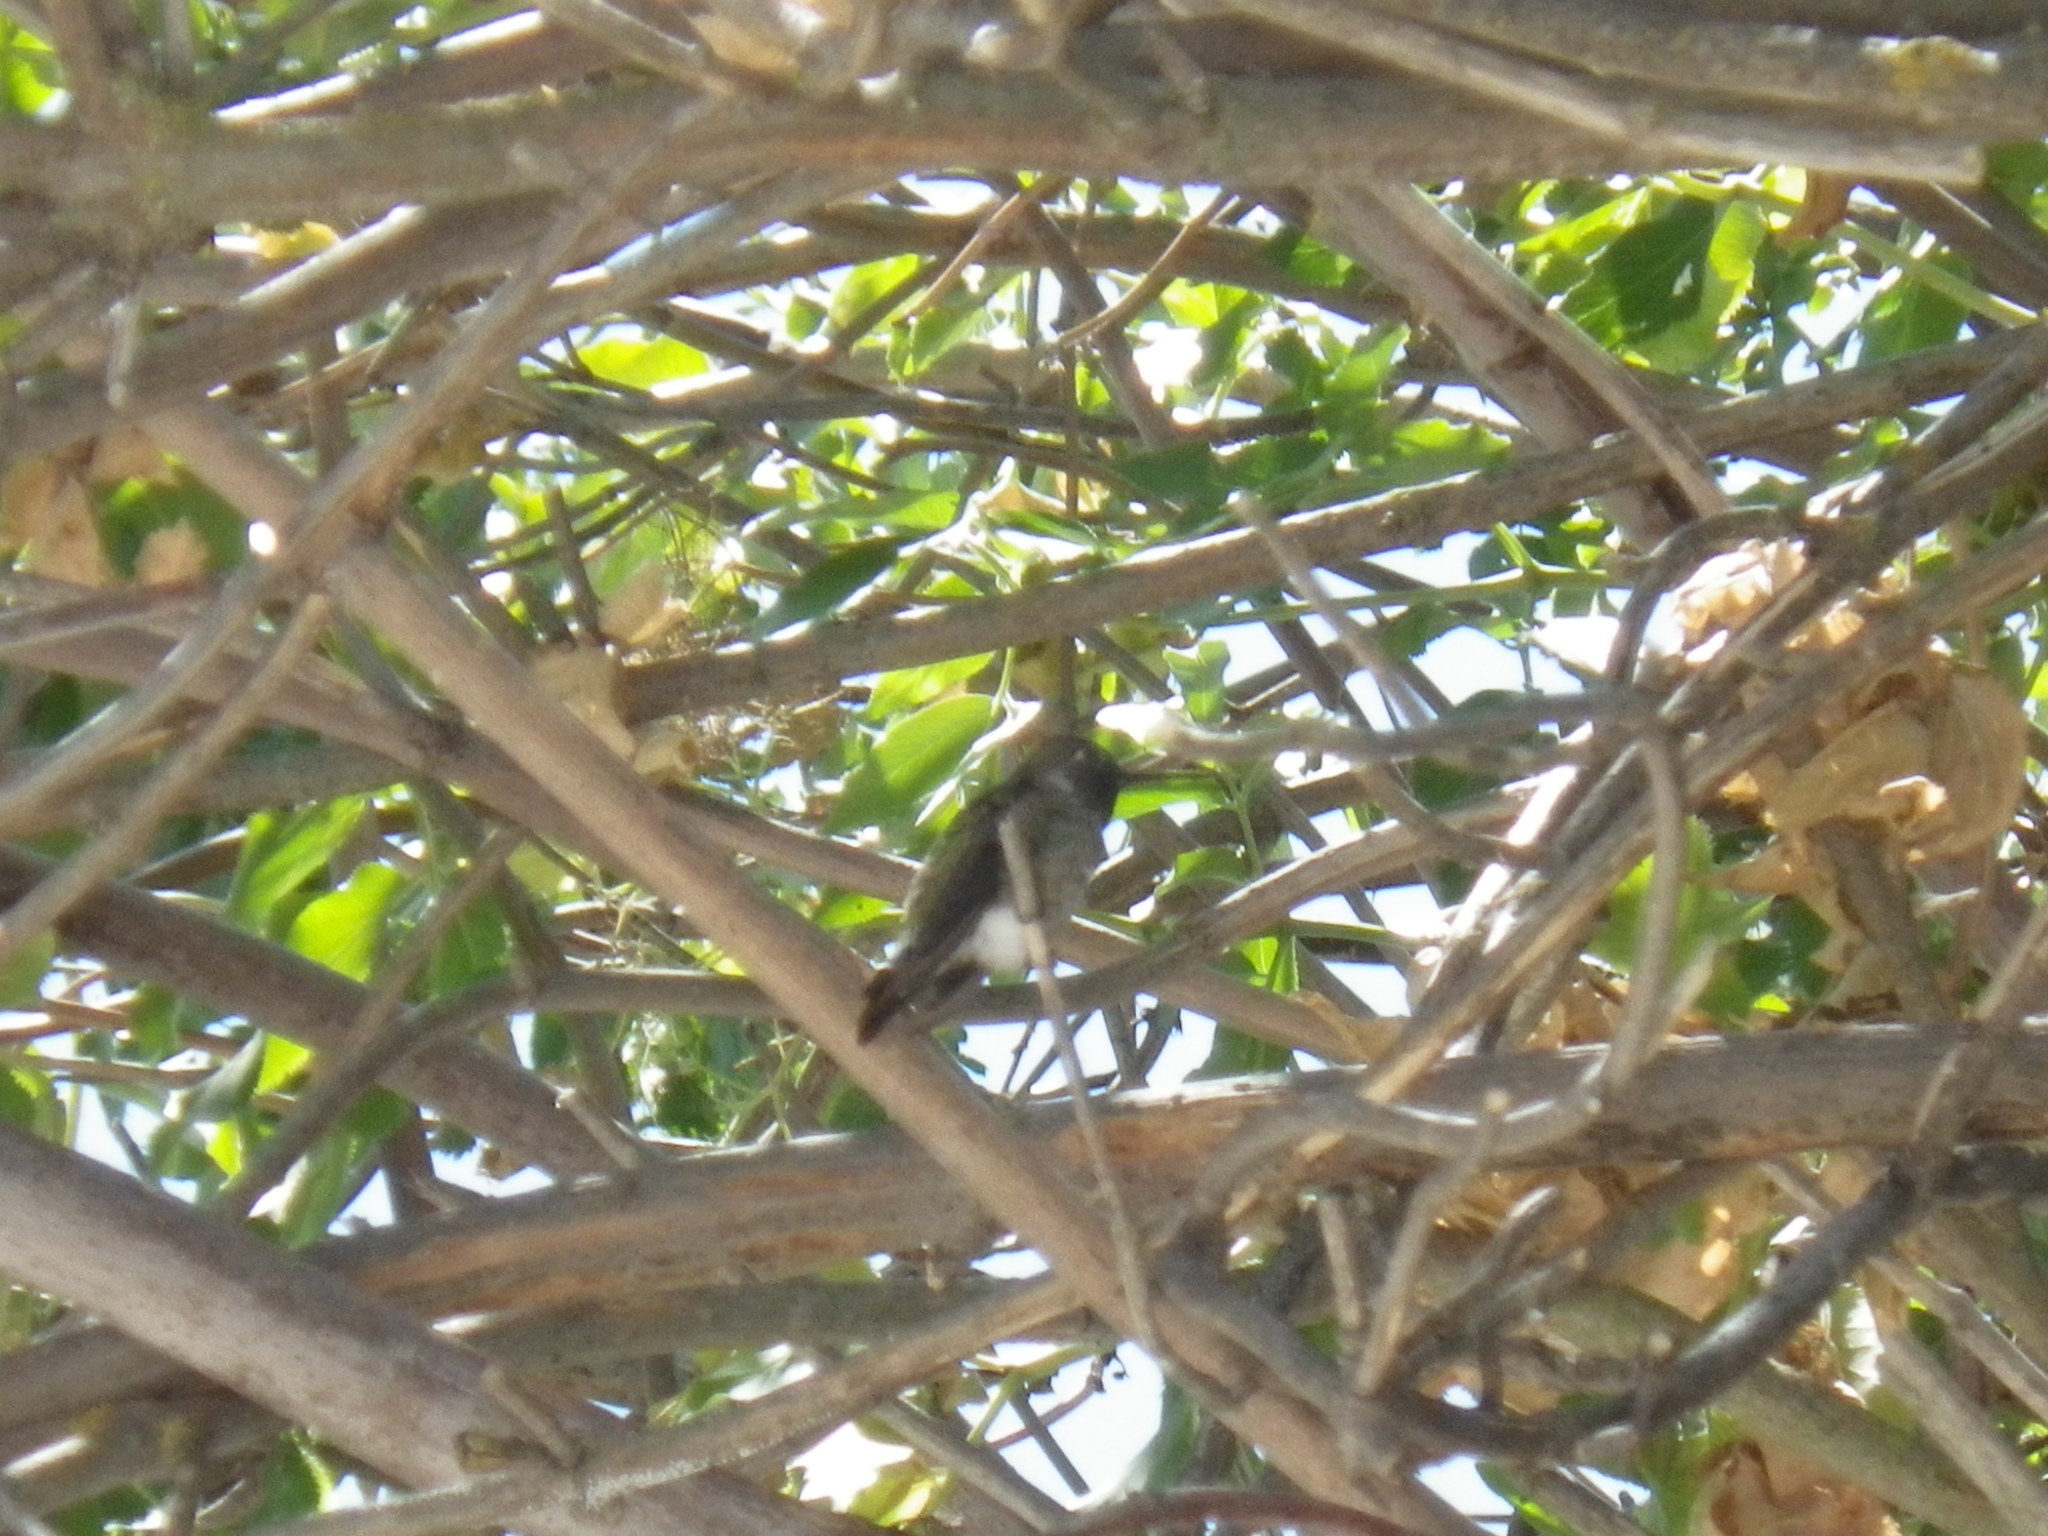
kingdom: Animalia
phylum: Chordata
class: Aves
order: Apodiformes
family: Trochilidae
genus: Calypte
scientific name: Calypte anna
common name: Anna's hummingbird
